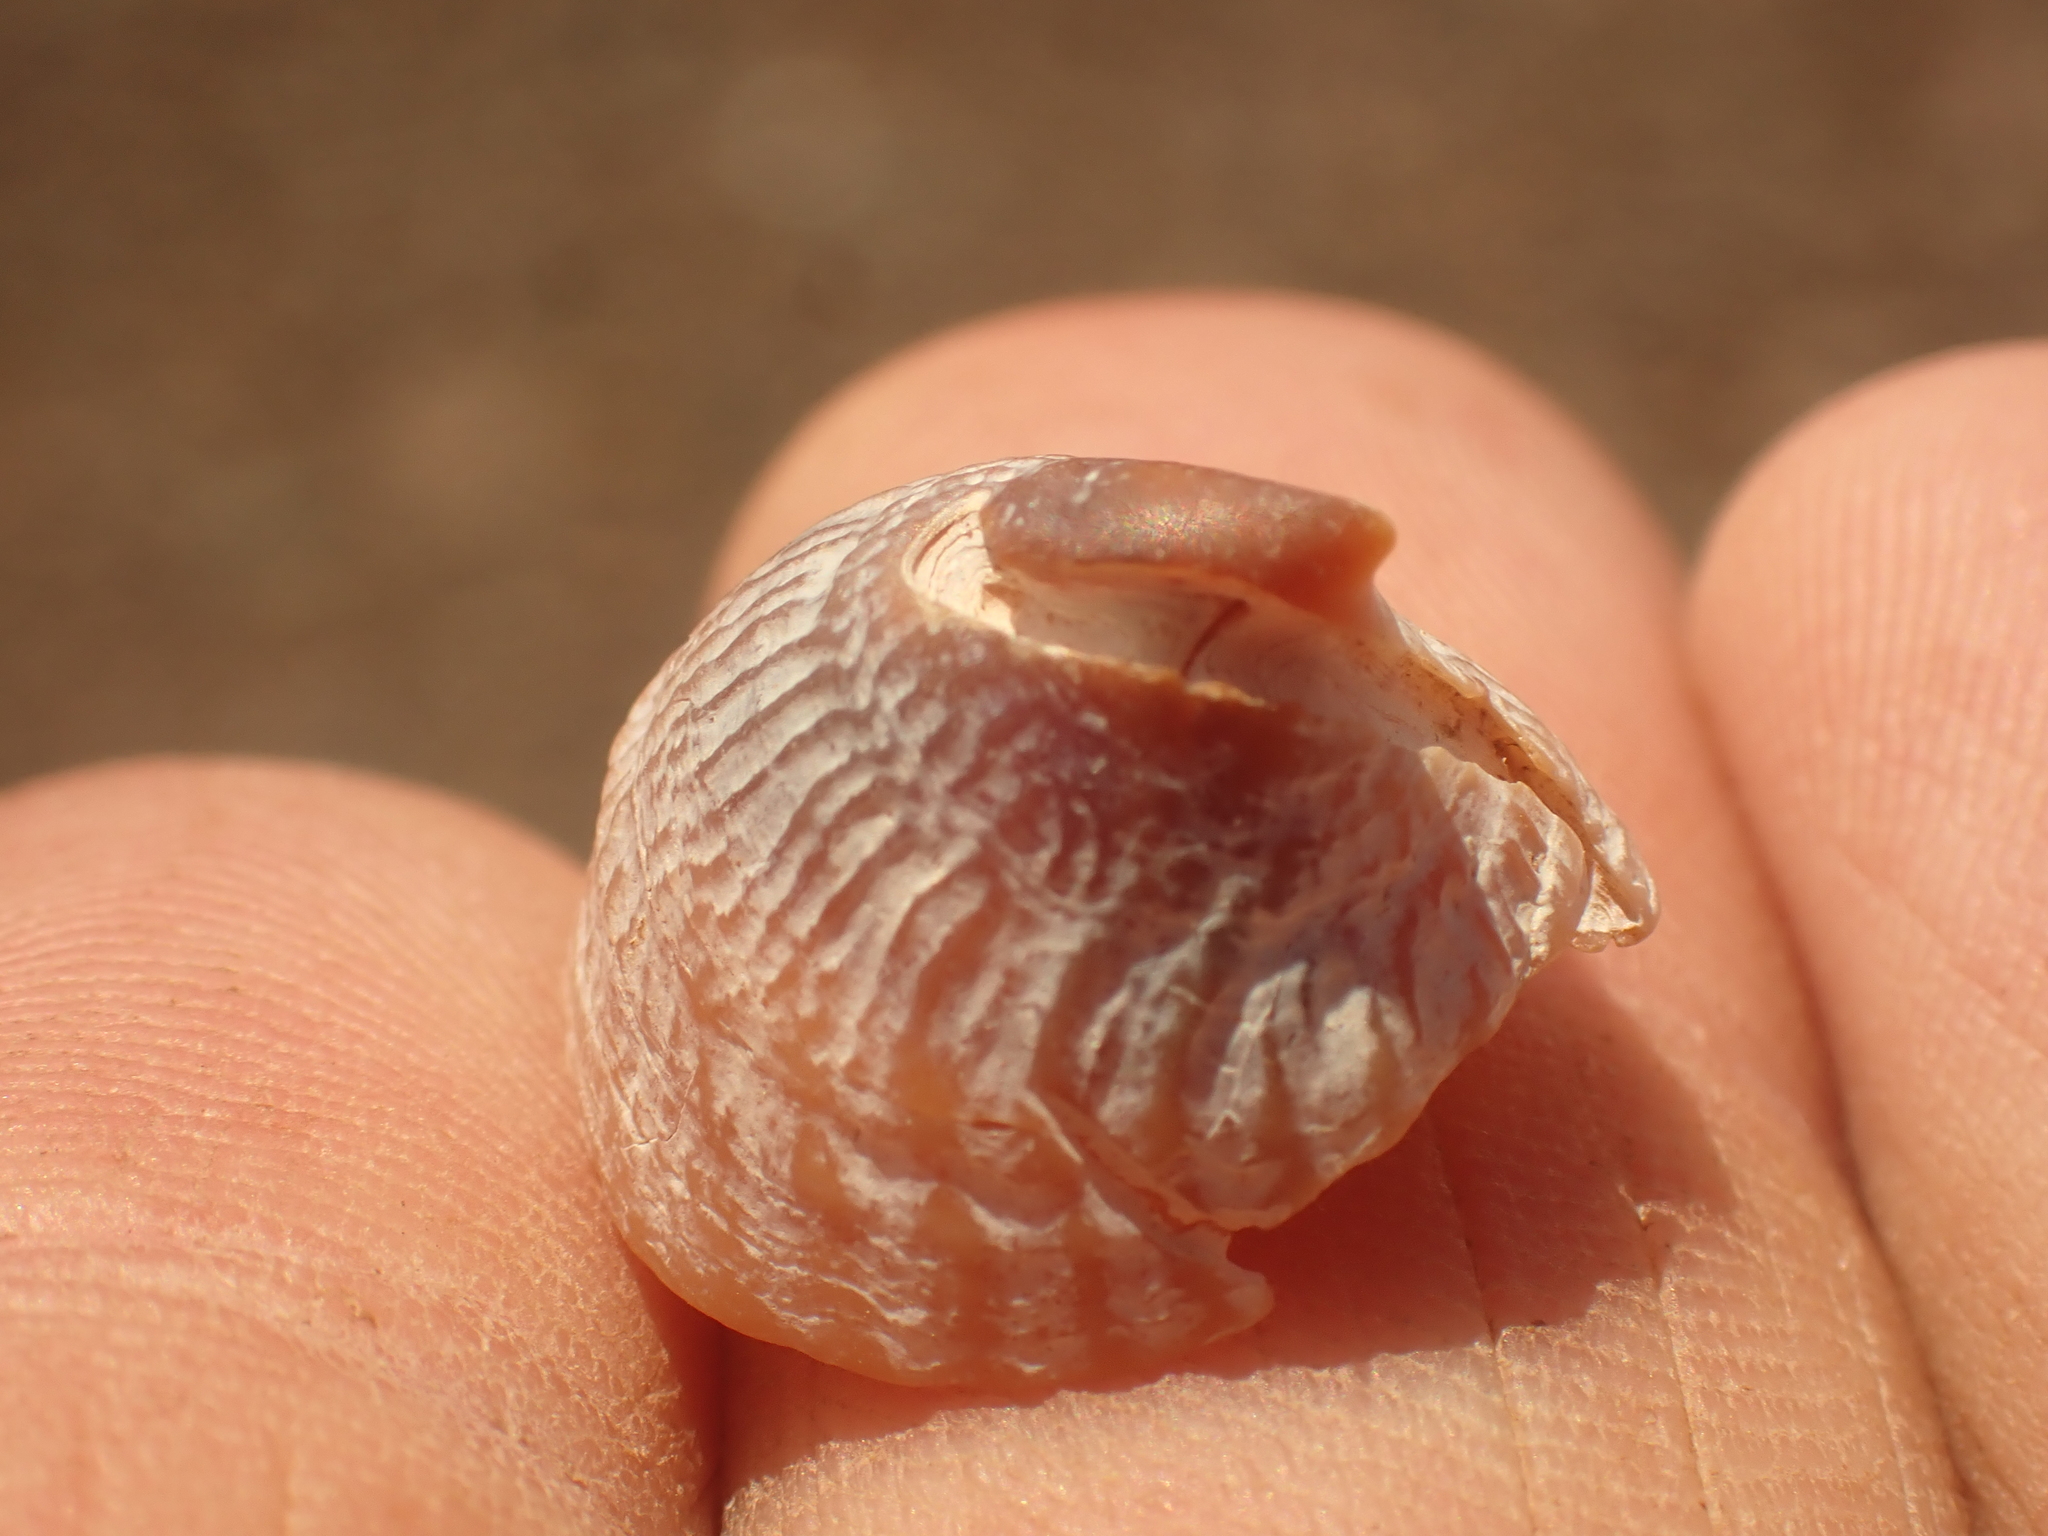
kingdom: Animalia
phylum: Mollusca
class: Gastropoda
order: Littorinimorpha
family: Calyptraeidae
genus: Crucibulum
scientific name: Crucibulum striatum
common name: Striate cup-and -saucer
